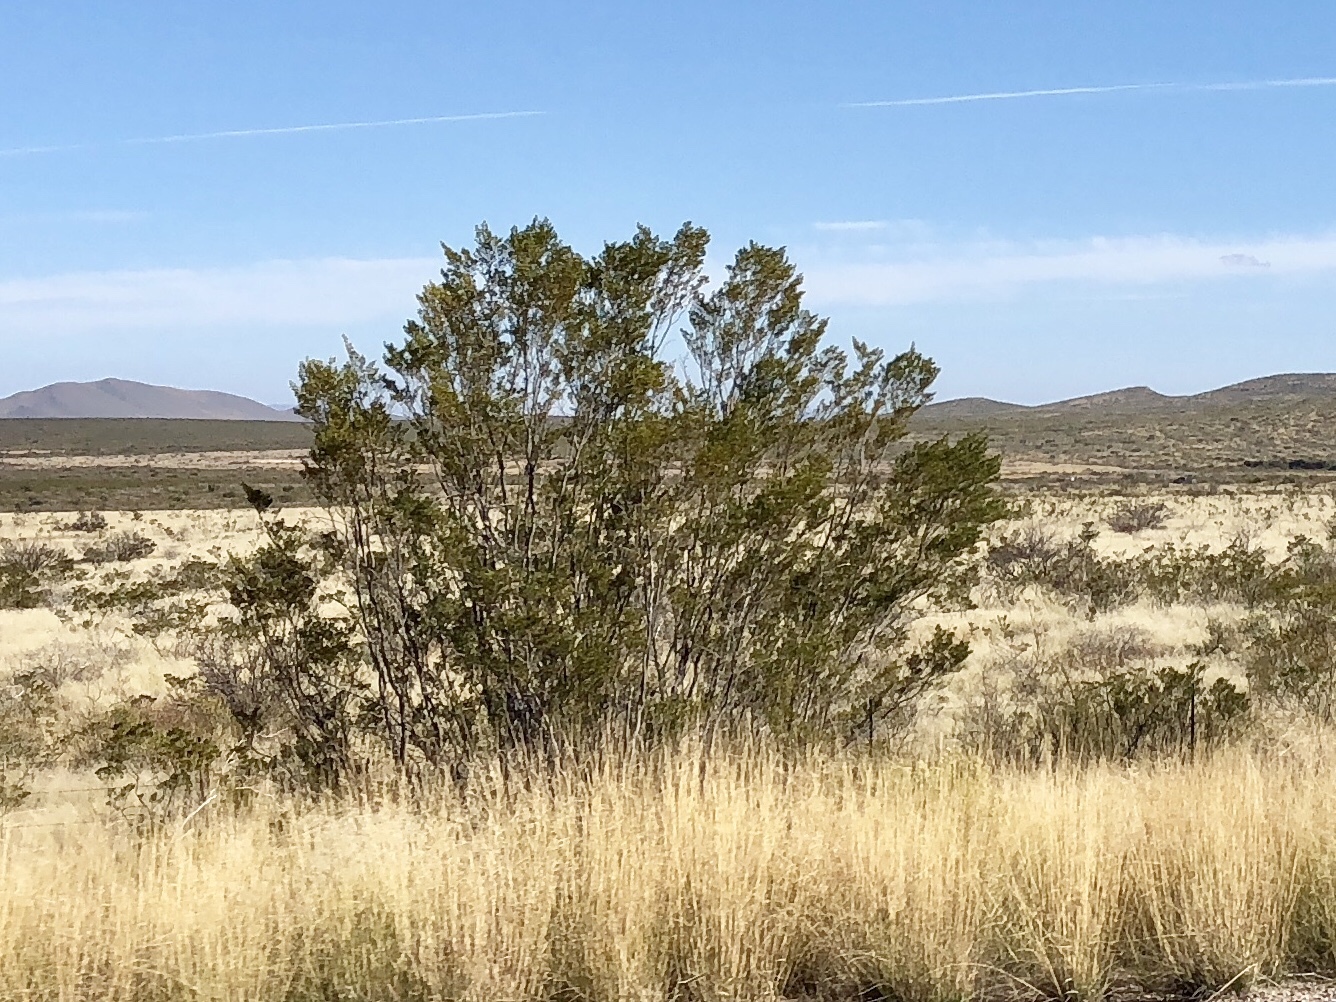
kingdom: Plantae
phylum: Tracheophyta
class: Magnoliopsida
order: Zygophyllales
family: Zygophyllaceae
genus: Larrea
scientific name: Larrea tridentata
